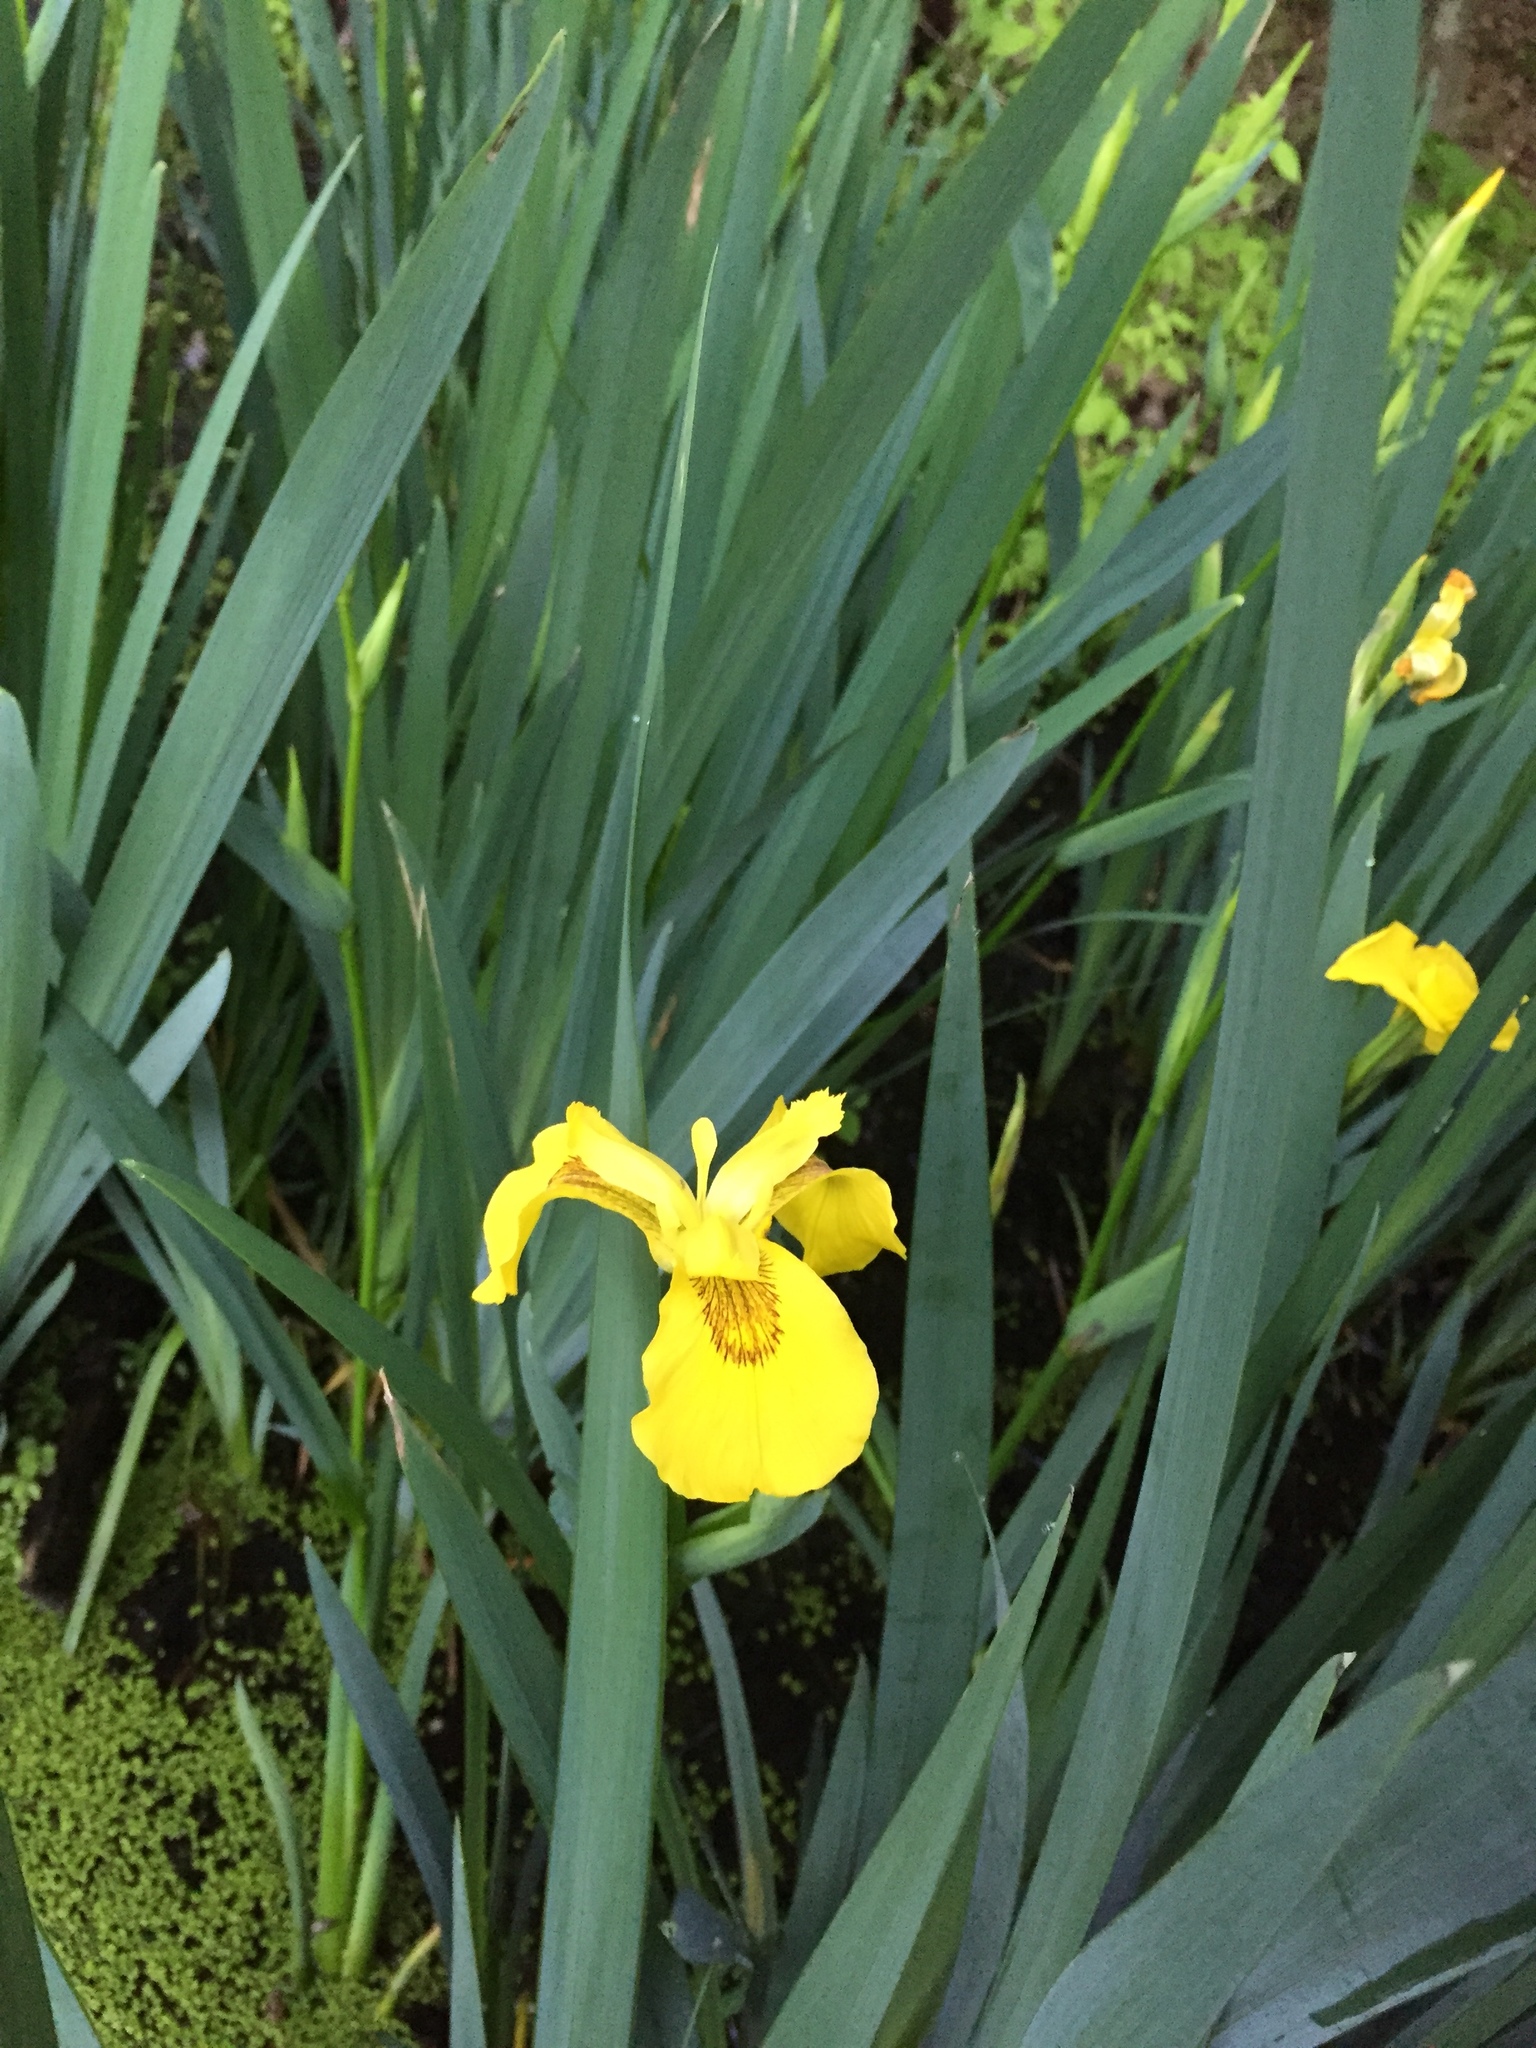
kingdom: Plantae
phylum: Tracheophyta
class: Liliopsida
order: Asparagales
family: Iridaceae
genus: Iris
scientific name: Iris pseudacorus
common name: Yellow flag
